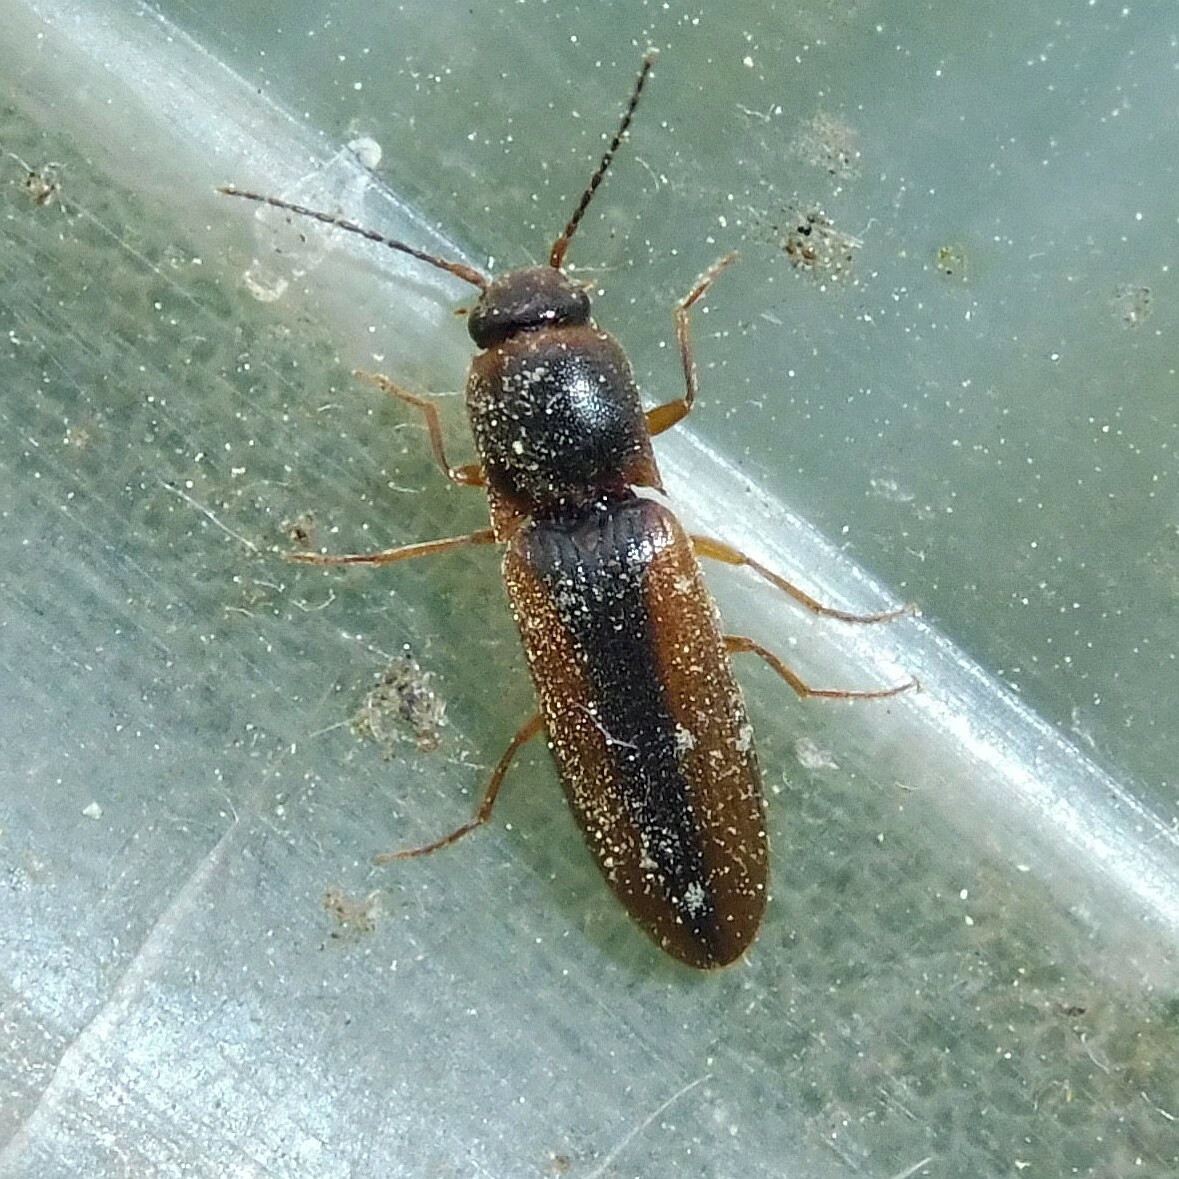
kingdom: Animalia
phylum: Arthropoda
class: Insecta
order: Coleoptera
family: Elateridae
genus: Dalopius
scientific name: Dalopius marginatus
